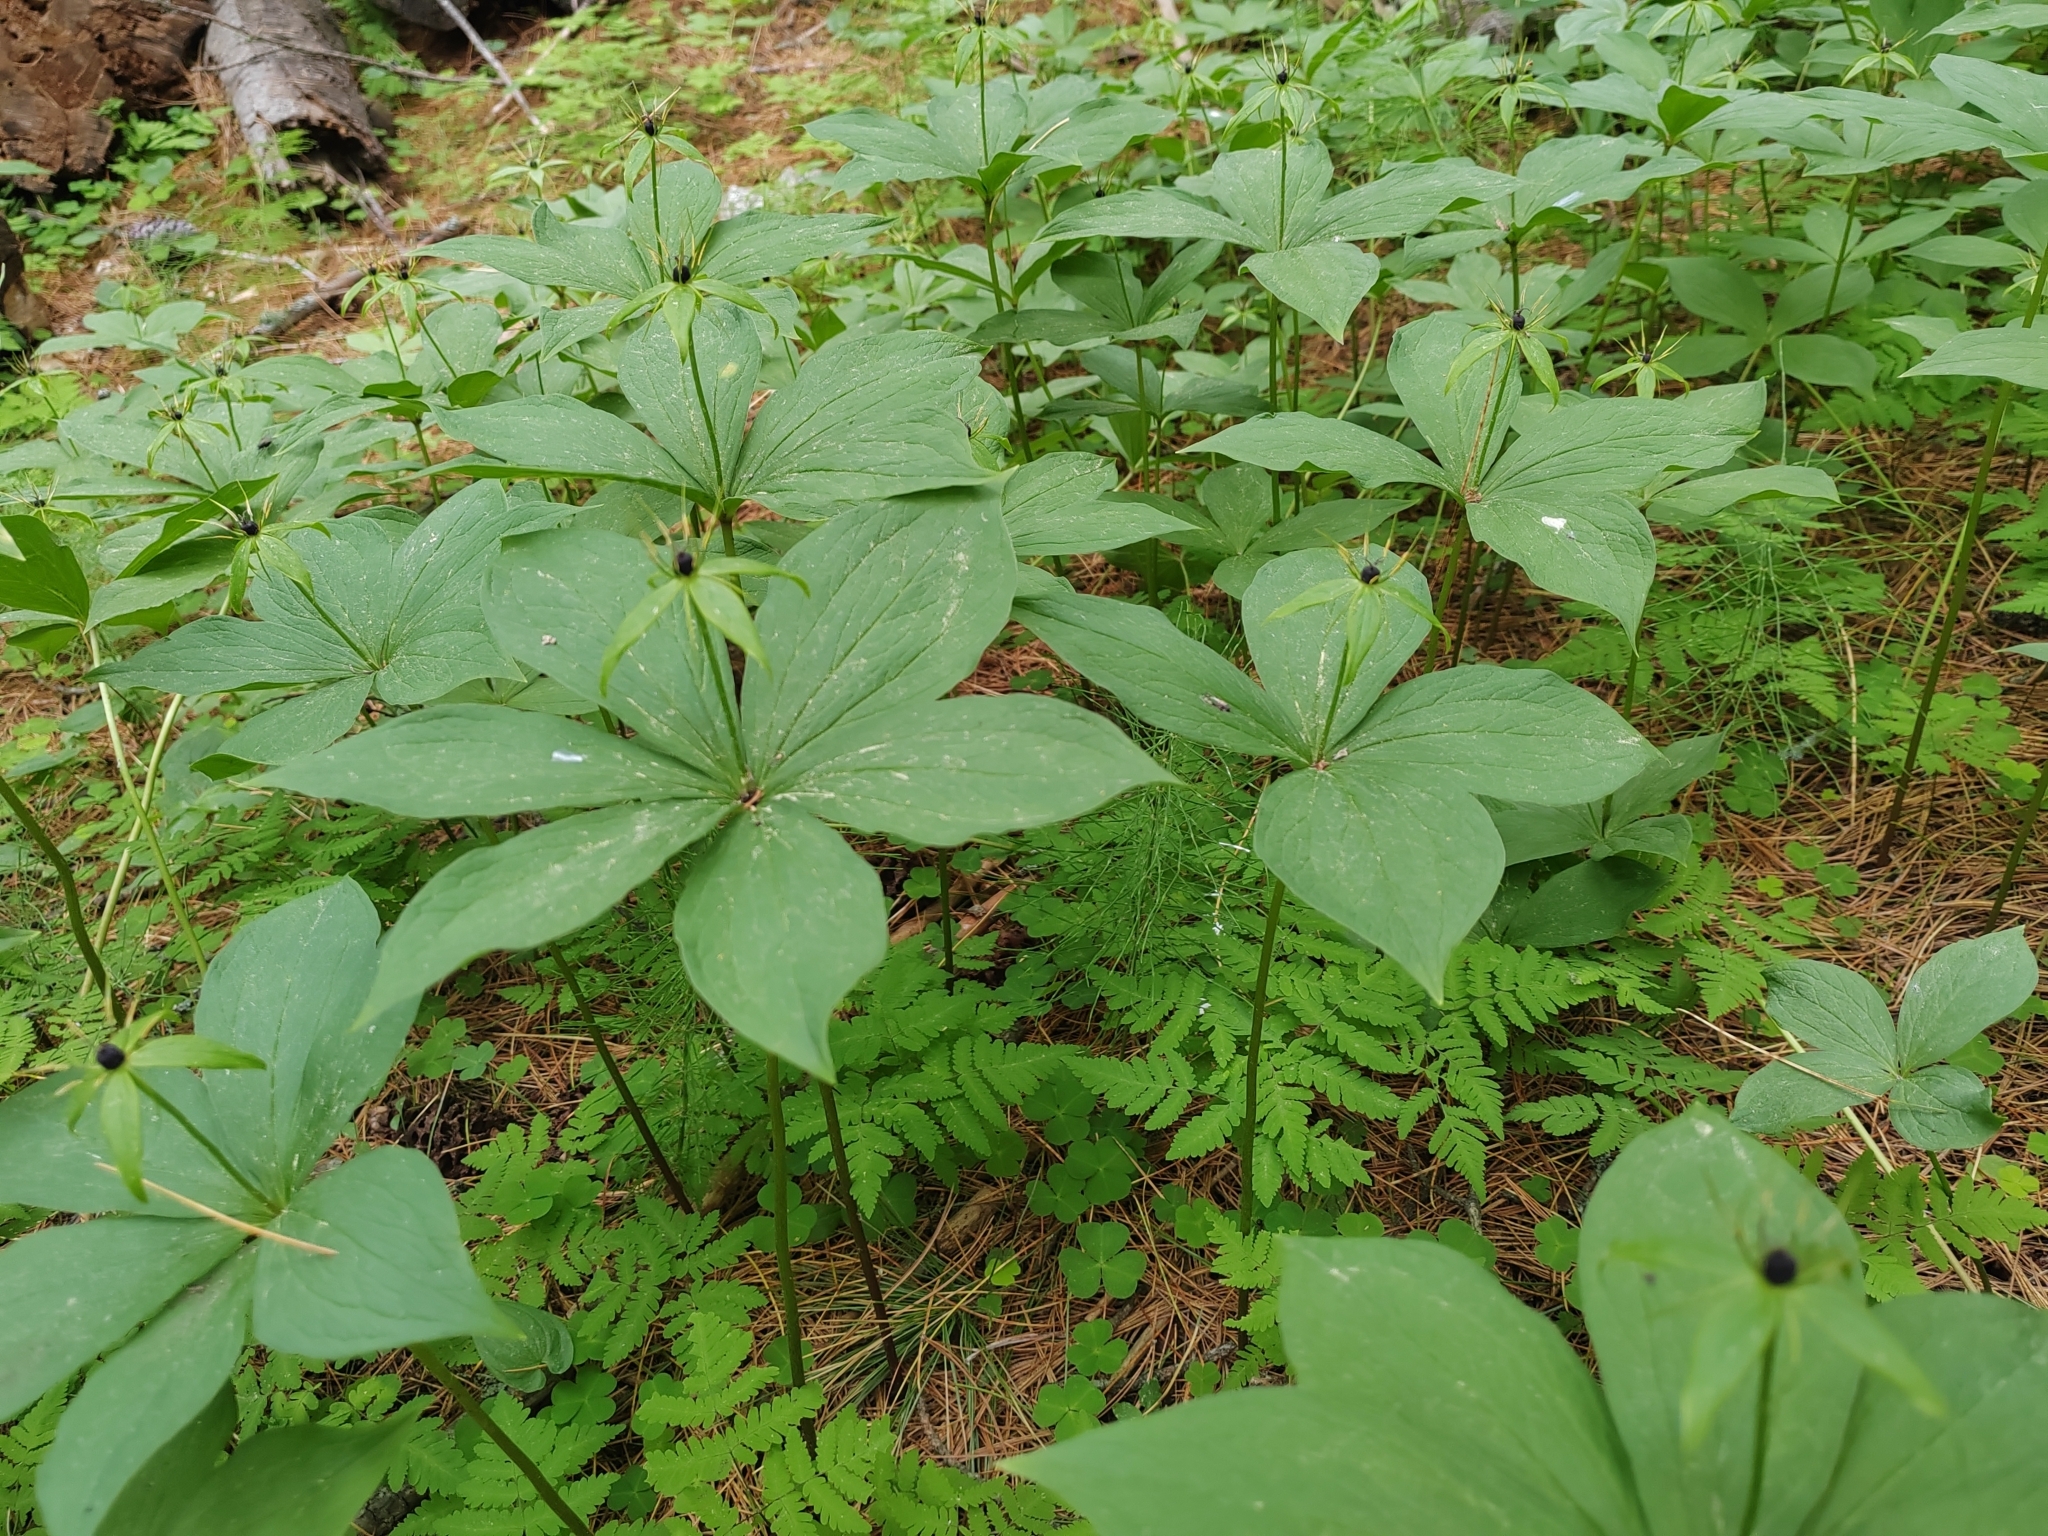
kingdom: Plantae
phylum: Tracheophyta
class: Liliopsida
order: Liliales
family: Melanthiaceae
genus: Paris
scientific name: Paris quadrifolia
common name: Herb-paris
